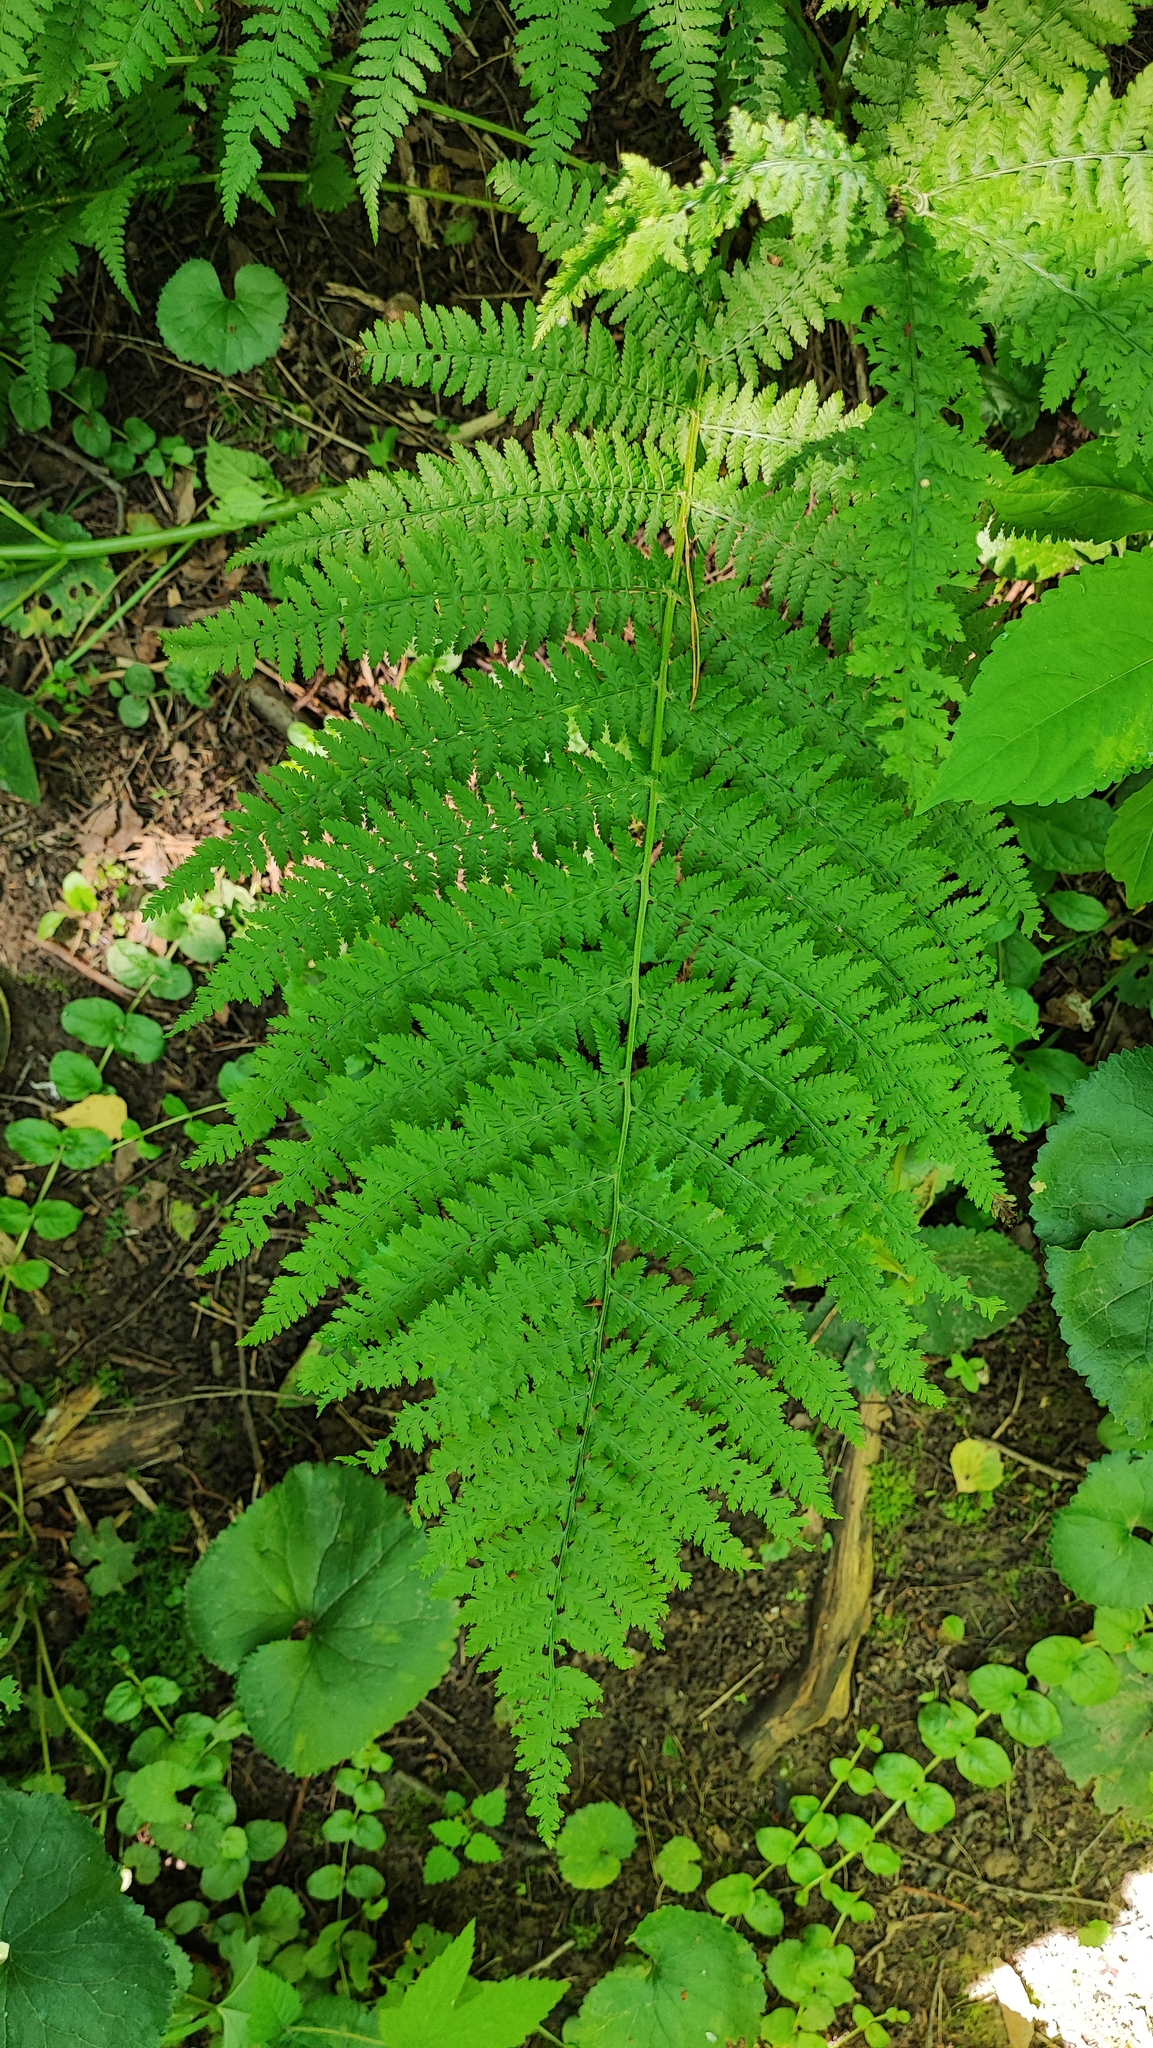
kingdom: Plantae
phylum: Tracheophyta
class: Polypodiopsida
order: Polypodiales
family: Athyriaceae
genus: Athyrium
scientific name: Athyrium filix-femina
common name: Lady fern
